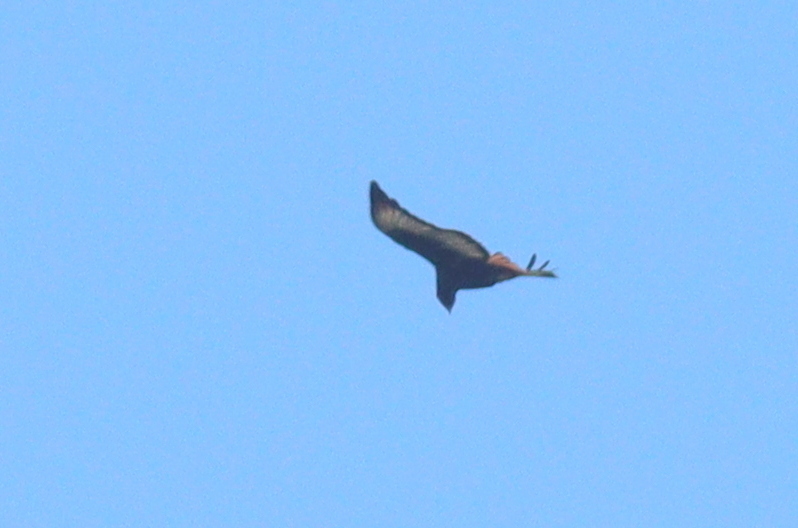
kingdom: Animalia
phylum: Chordata
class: Aves
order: Accipitriformes
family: Accipitridae
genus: Buteo
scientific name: Buteo augur
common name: Augur buzzard
